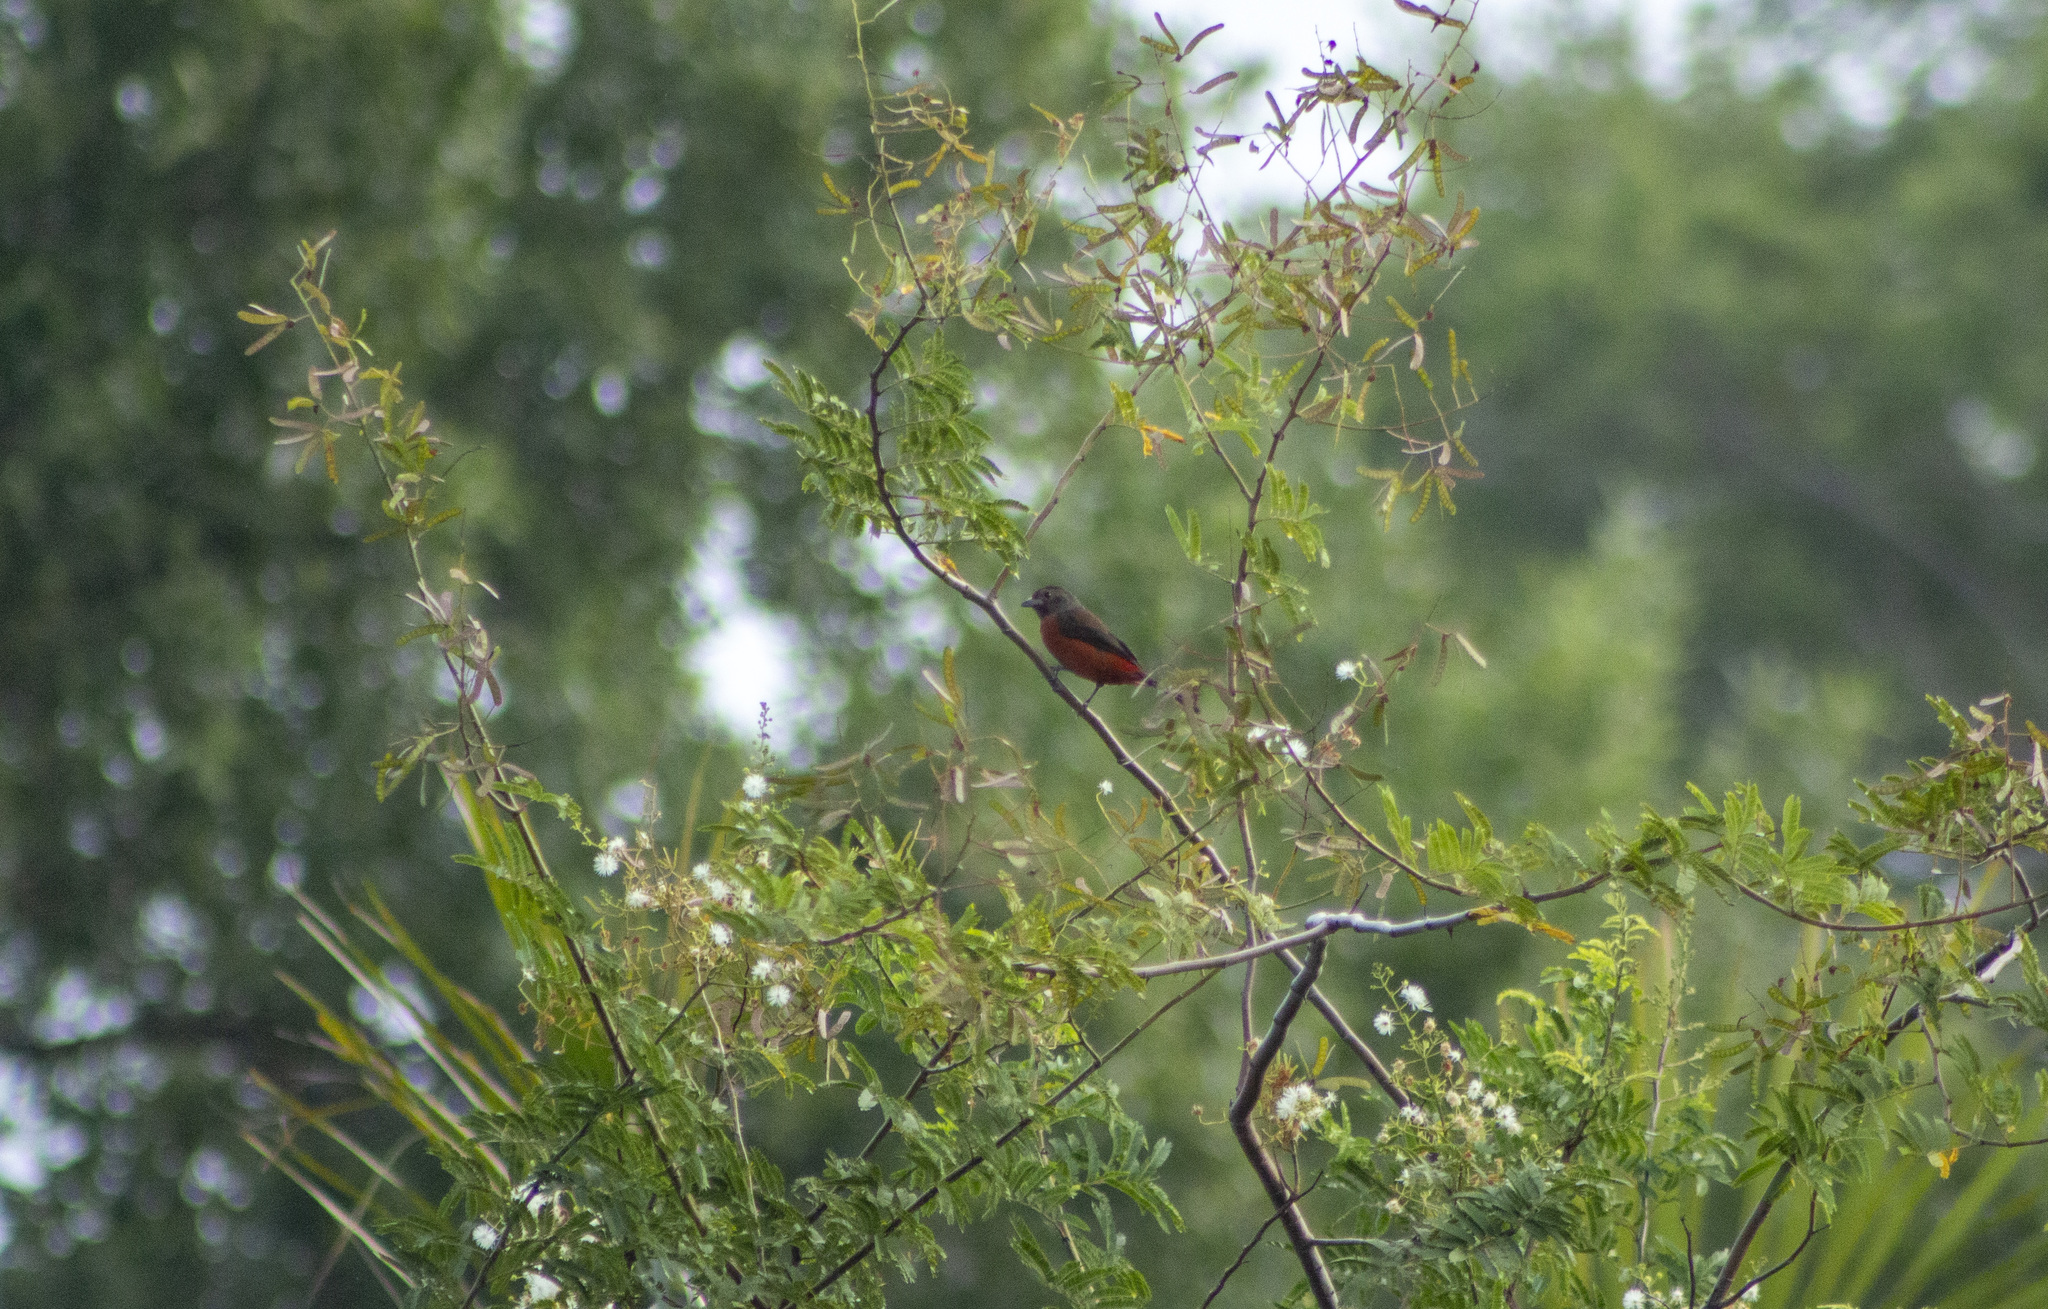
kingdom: Animalia
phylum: Chordata
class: Aves
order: Passeriformes
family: Thraupidae
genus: Ramphocelus
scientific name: Ramphocelus bresilia
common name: Brazilian tanager
